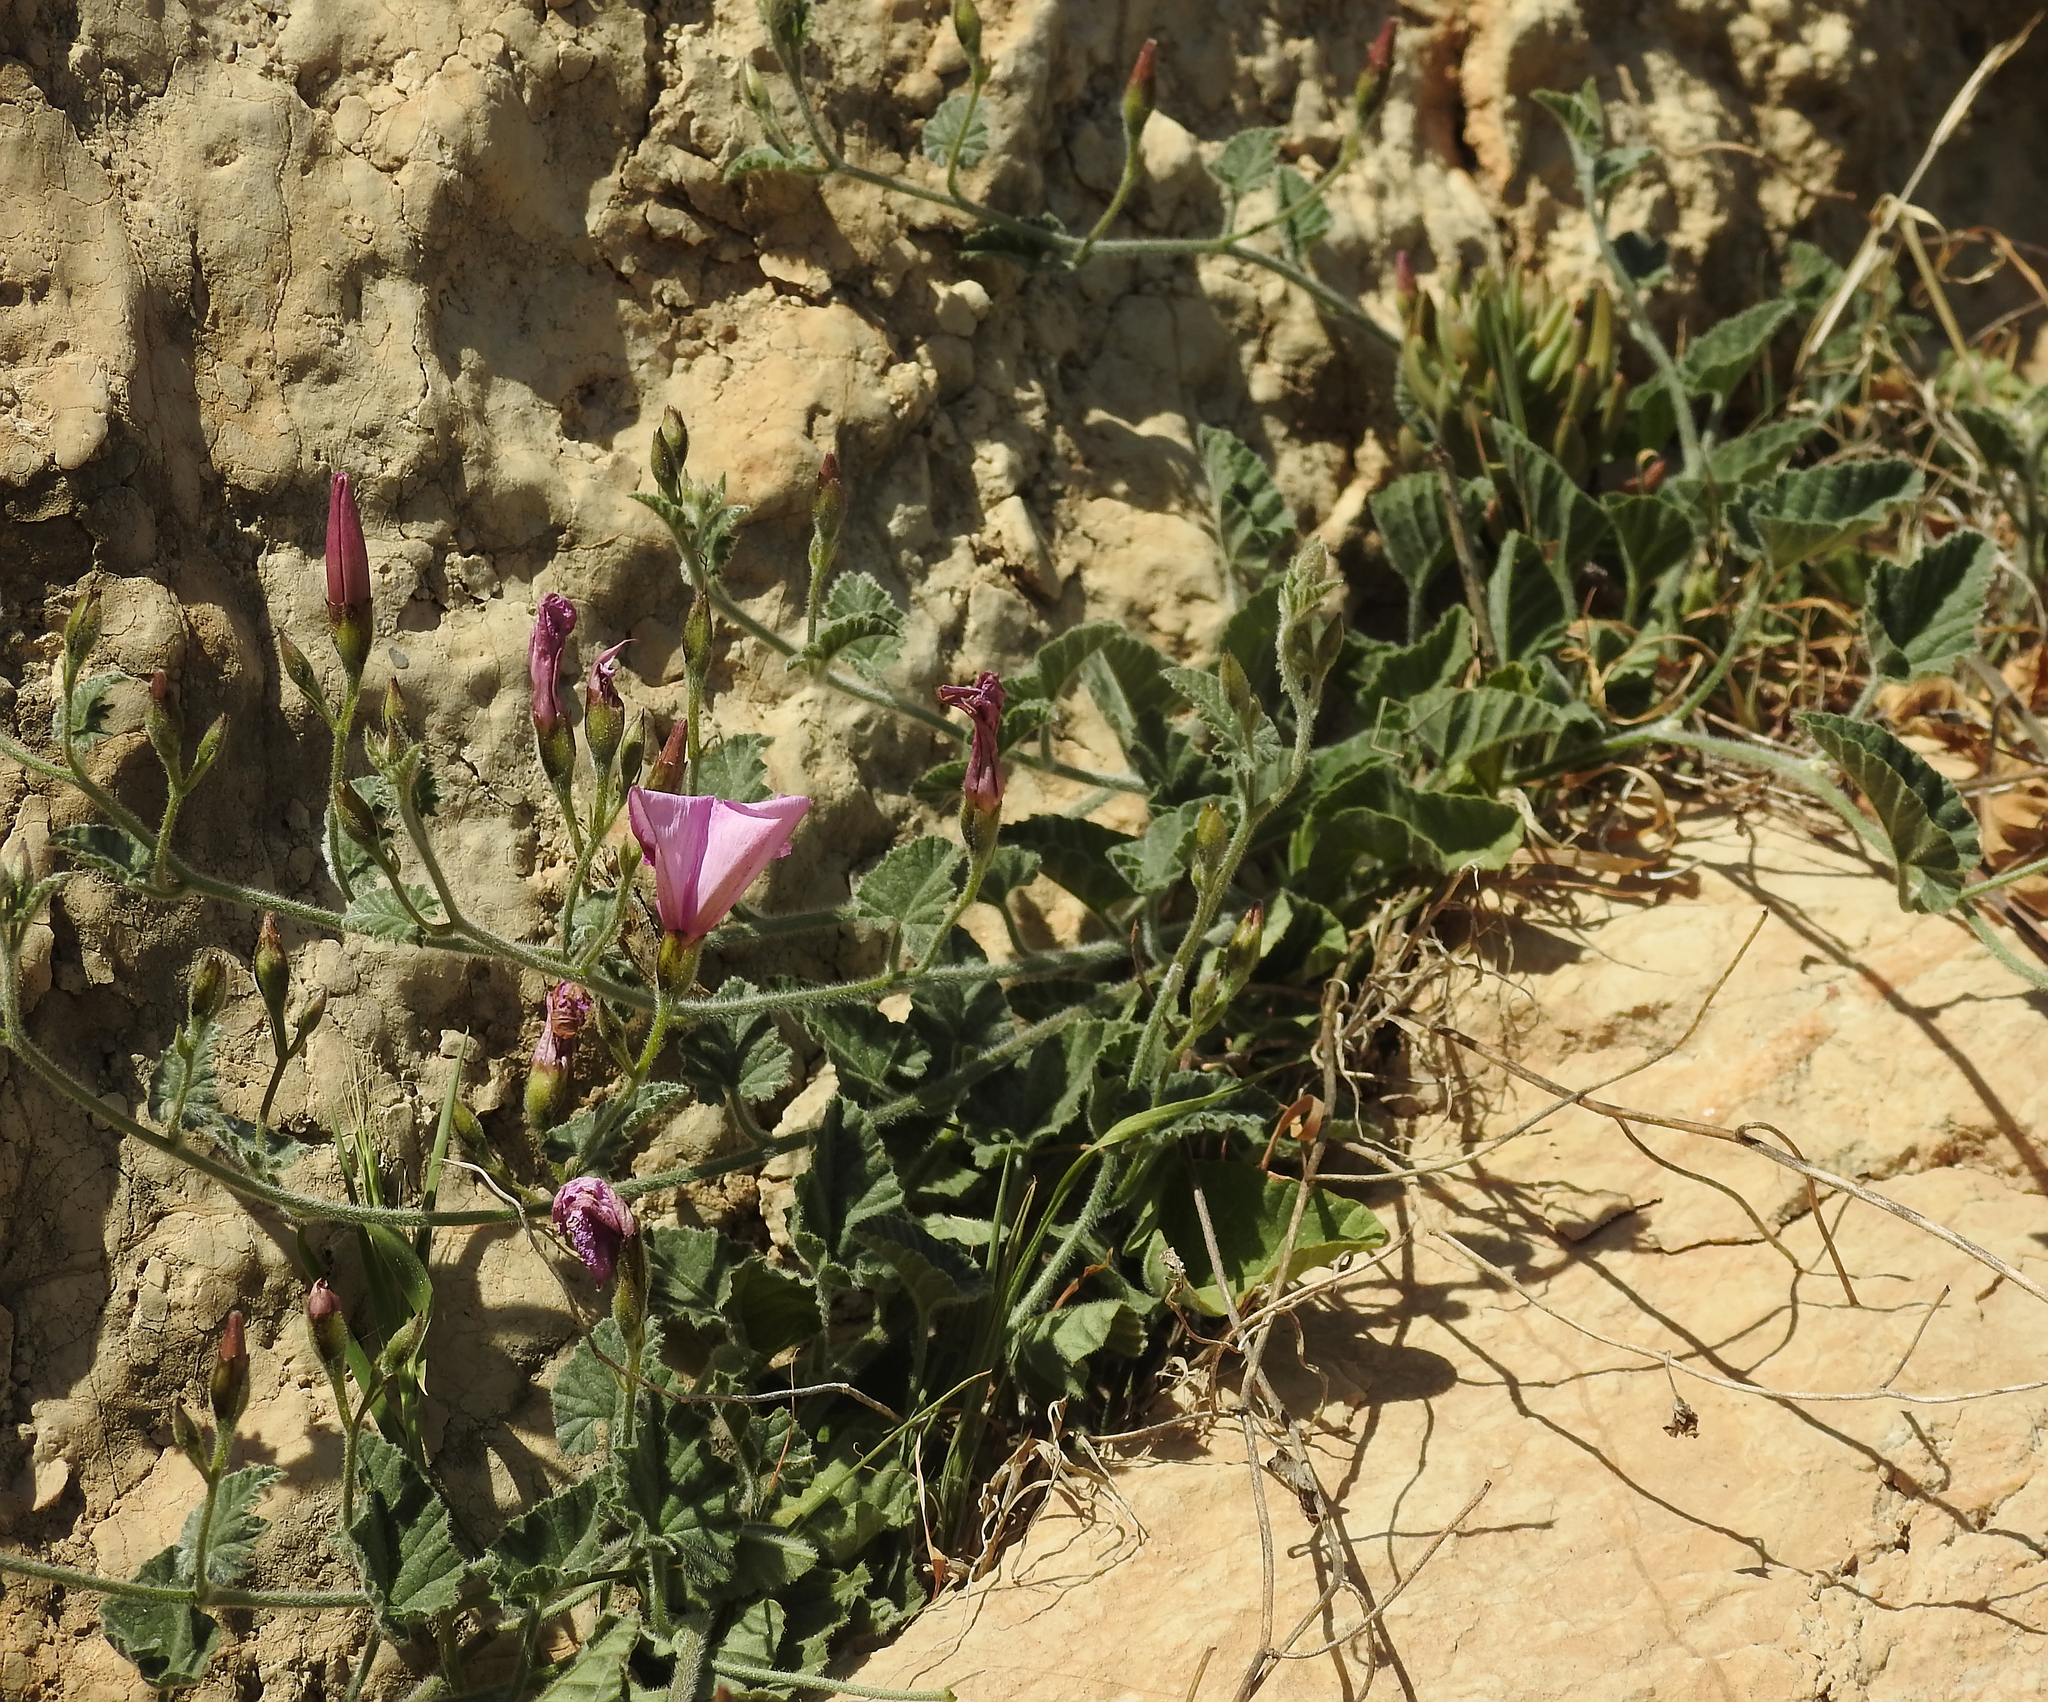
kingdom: Plantae
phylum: Tracheophyta
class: Magnoliopsida
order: Solanales
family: Convolvulaceae
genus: Convolvulus
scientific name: Convolvulus althaeoides
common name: Mallow bindweed
